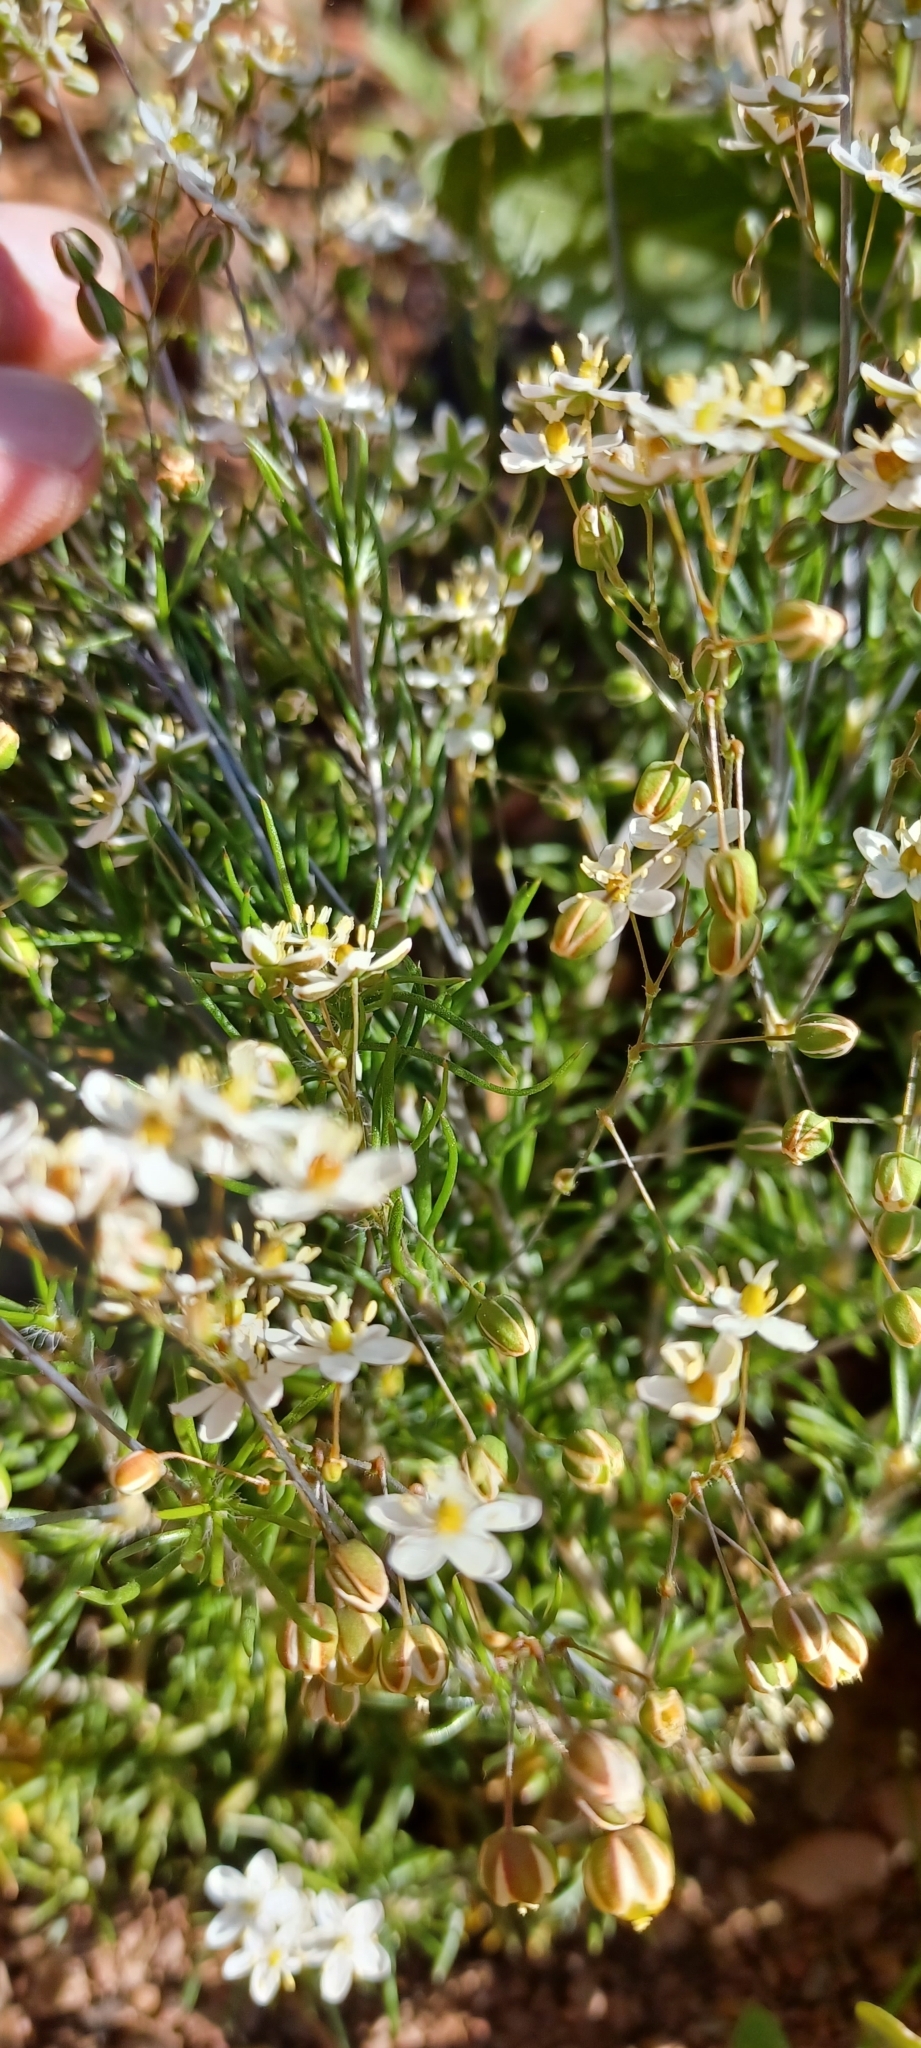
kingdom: Plantae
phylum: Tracheophyta
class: Magnoliopsida
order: Caryophyllales
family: Molluginaceae
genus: Pharnaceum
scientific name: Pharnaceum aurantium
